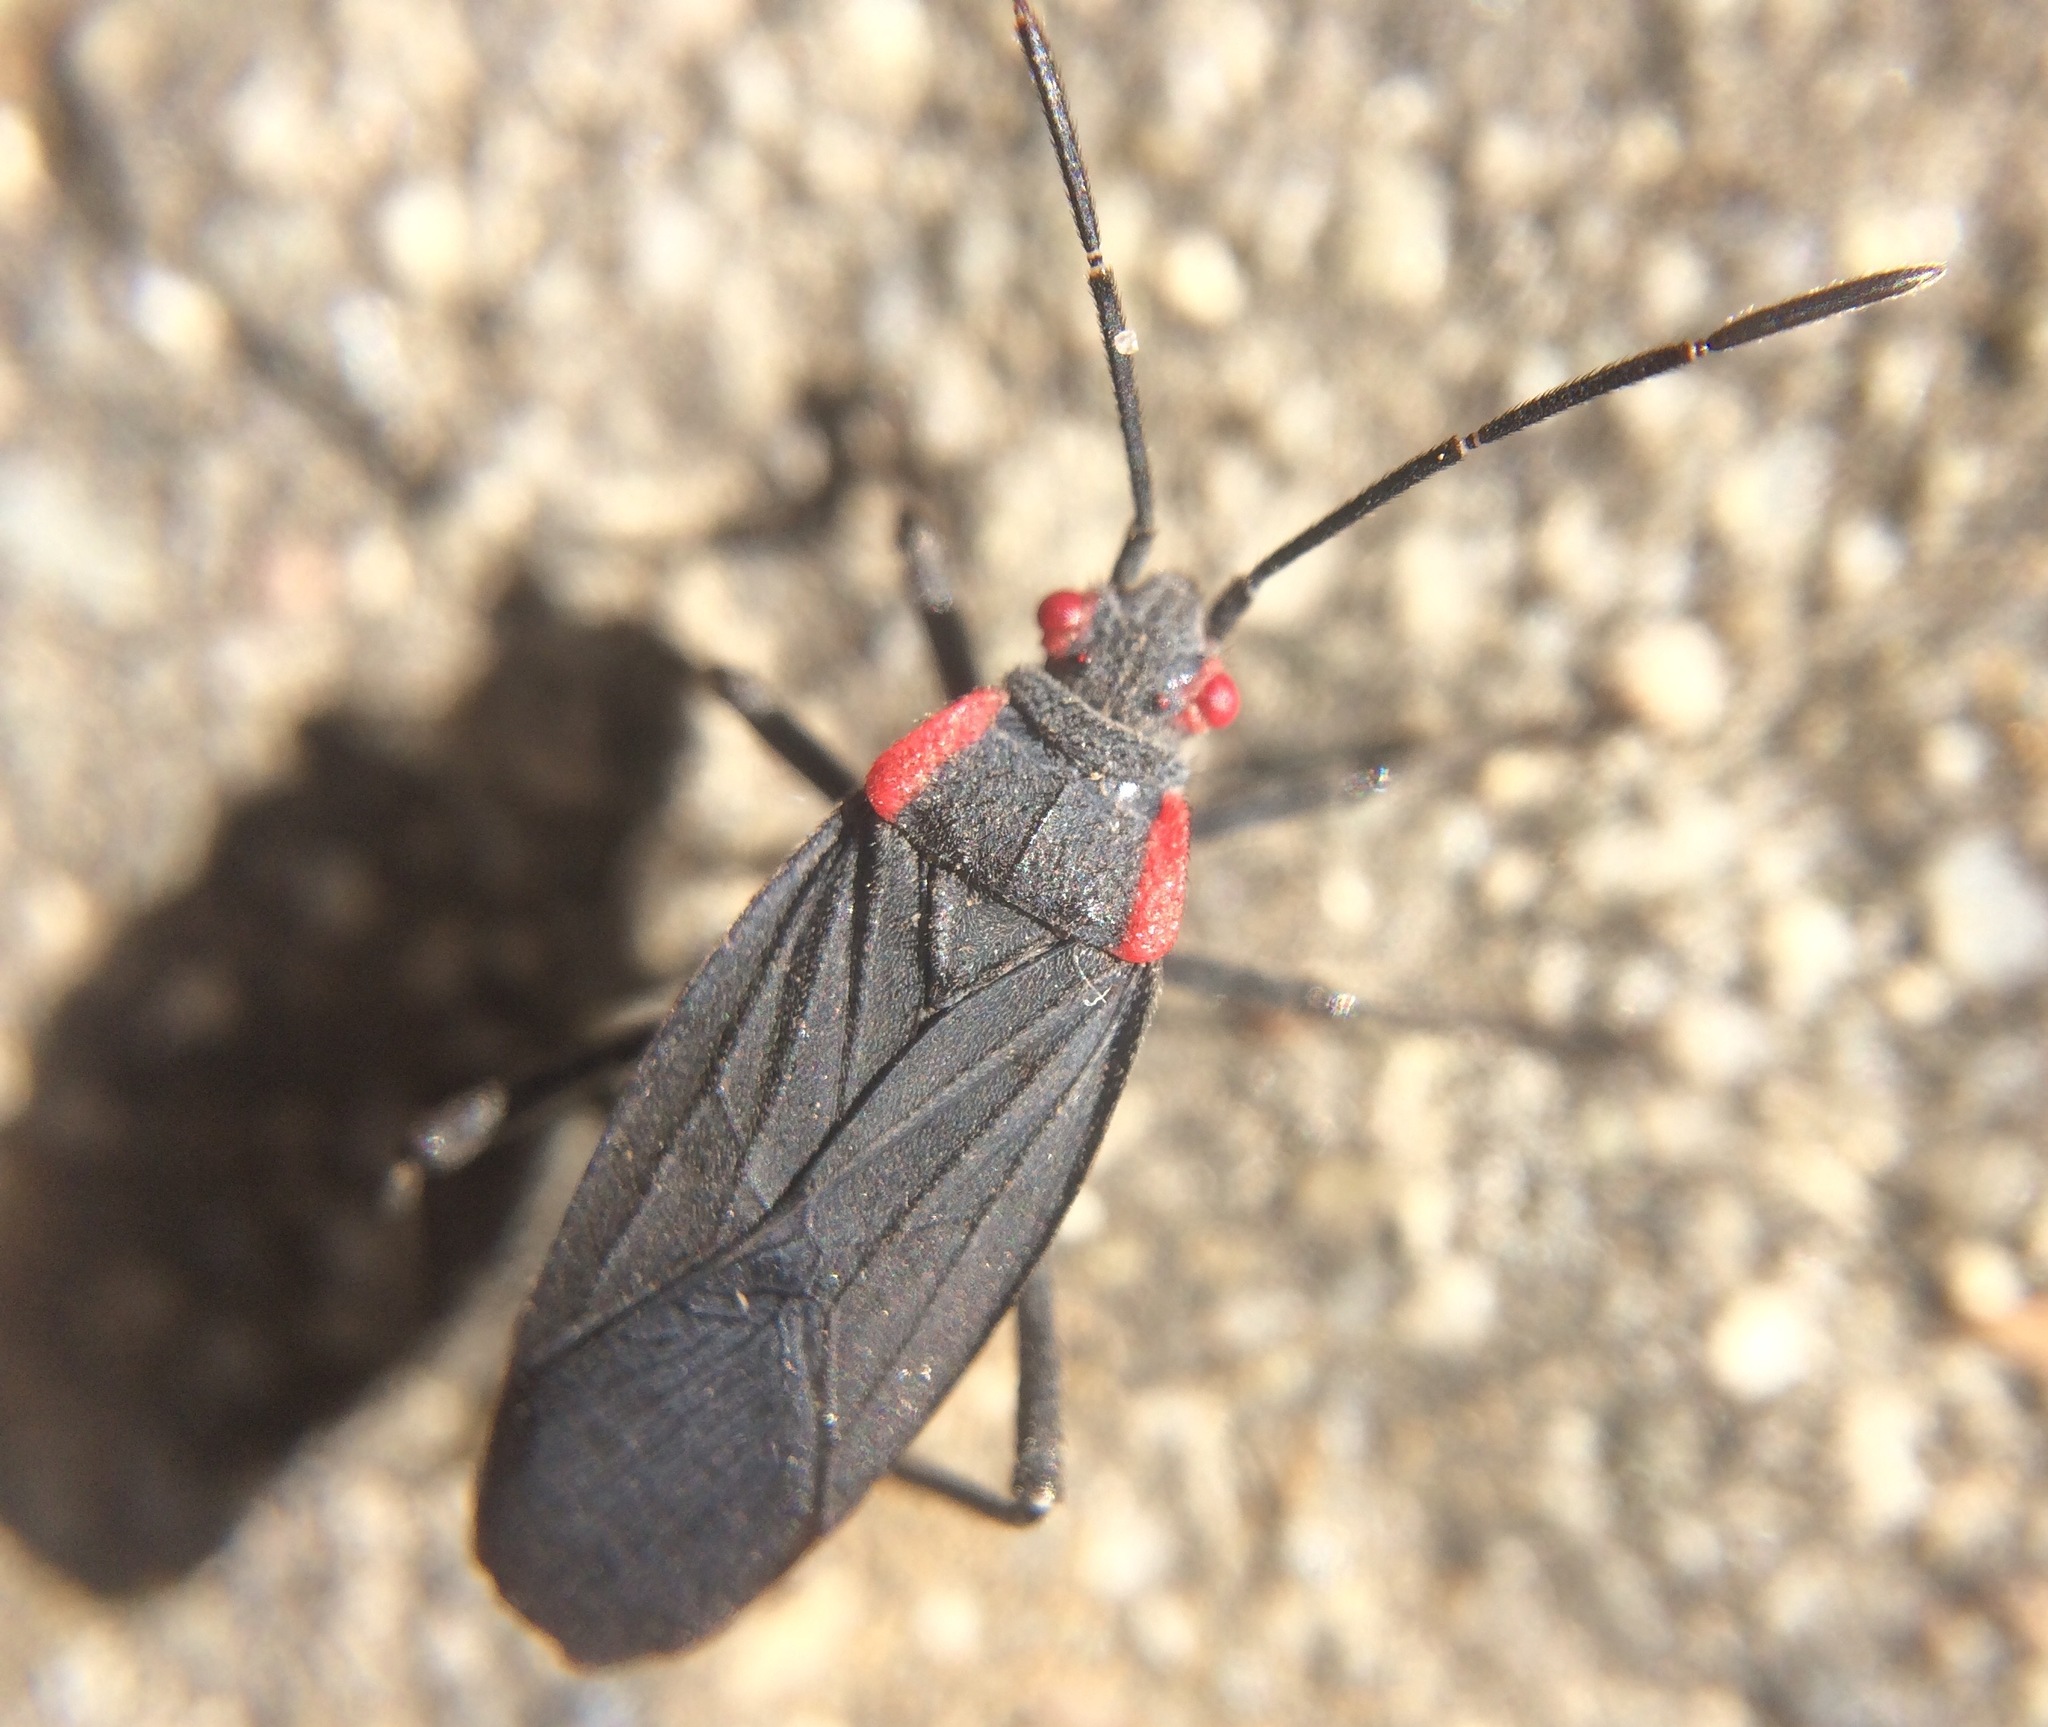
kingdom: Animalia
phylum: Arthropoda
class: Insecta
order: Hemiptera
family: Rhopalidae
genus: Jadera
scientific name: Jadera haematoloma
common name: Red-shouldered bug
